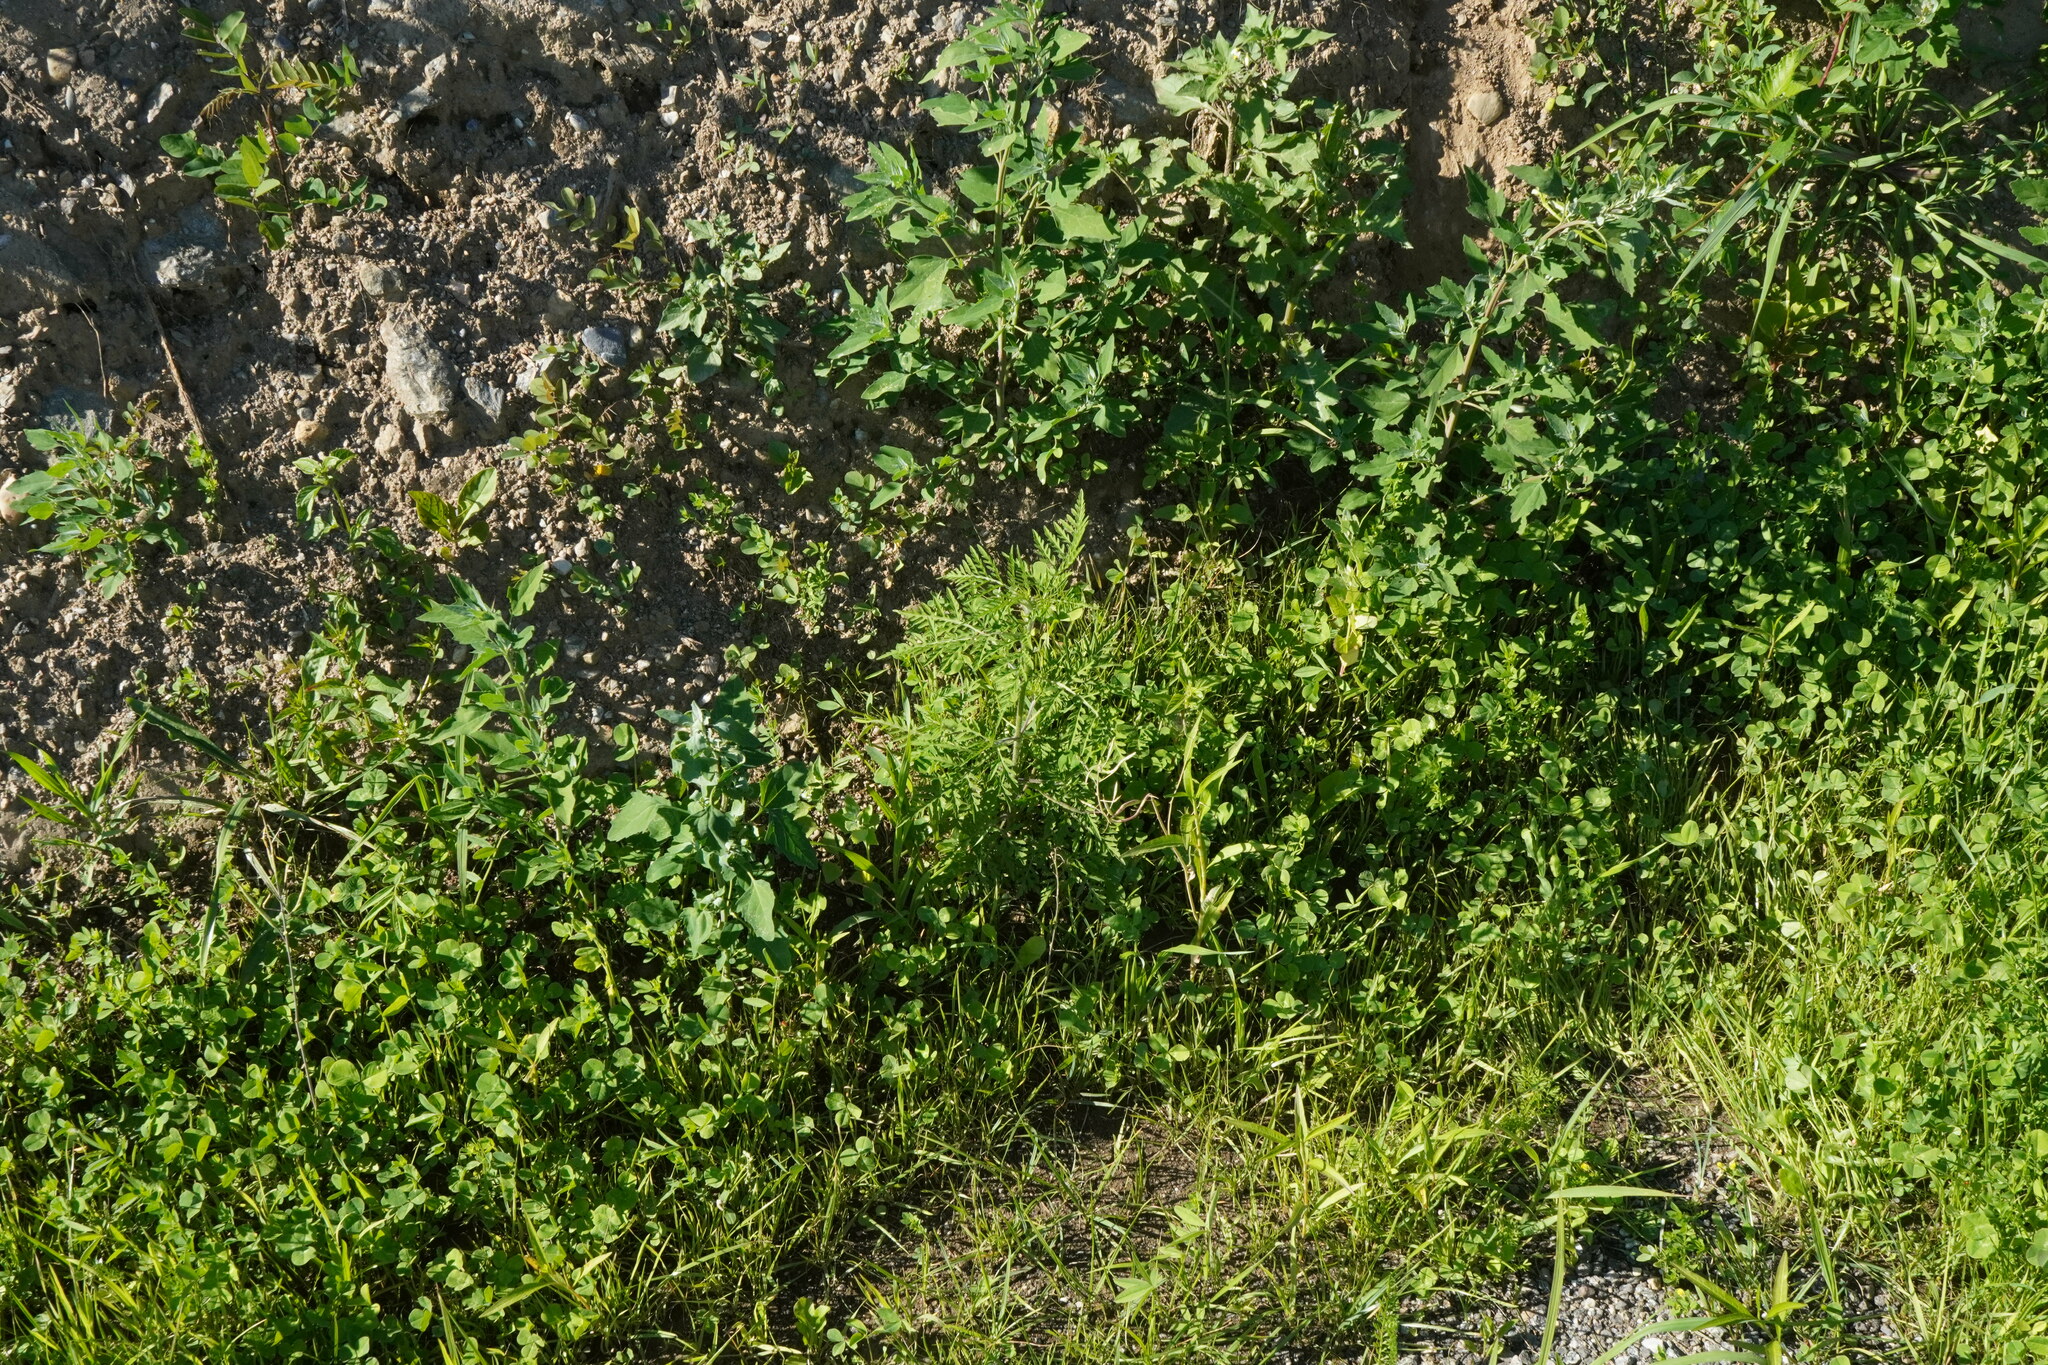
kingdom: Plantae
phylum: Tracheophyta
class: Magnoliopsida
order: Asterales
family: Asteraceae
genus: Ambrosia
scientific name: Ambrosia artemisiifolia
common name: Annual ragweed
